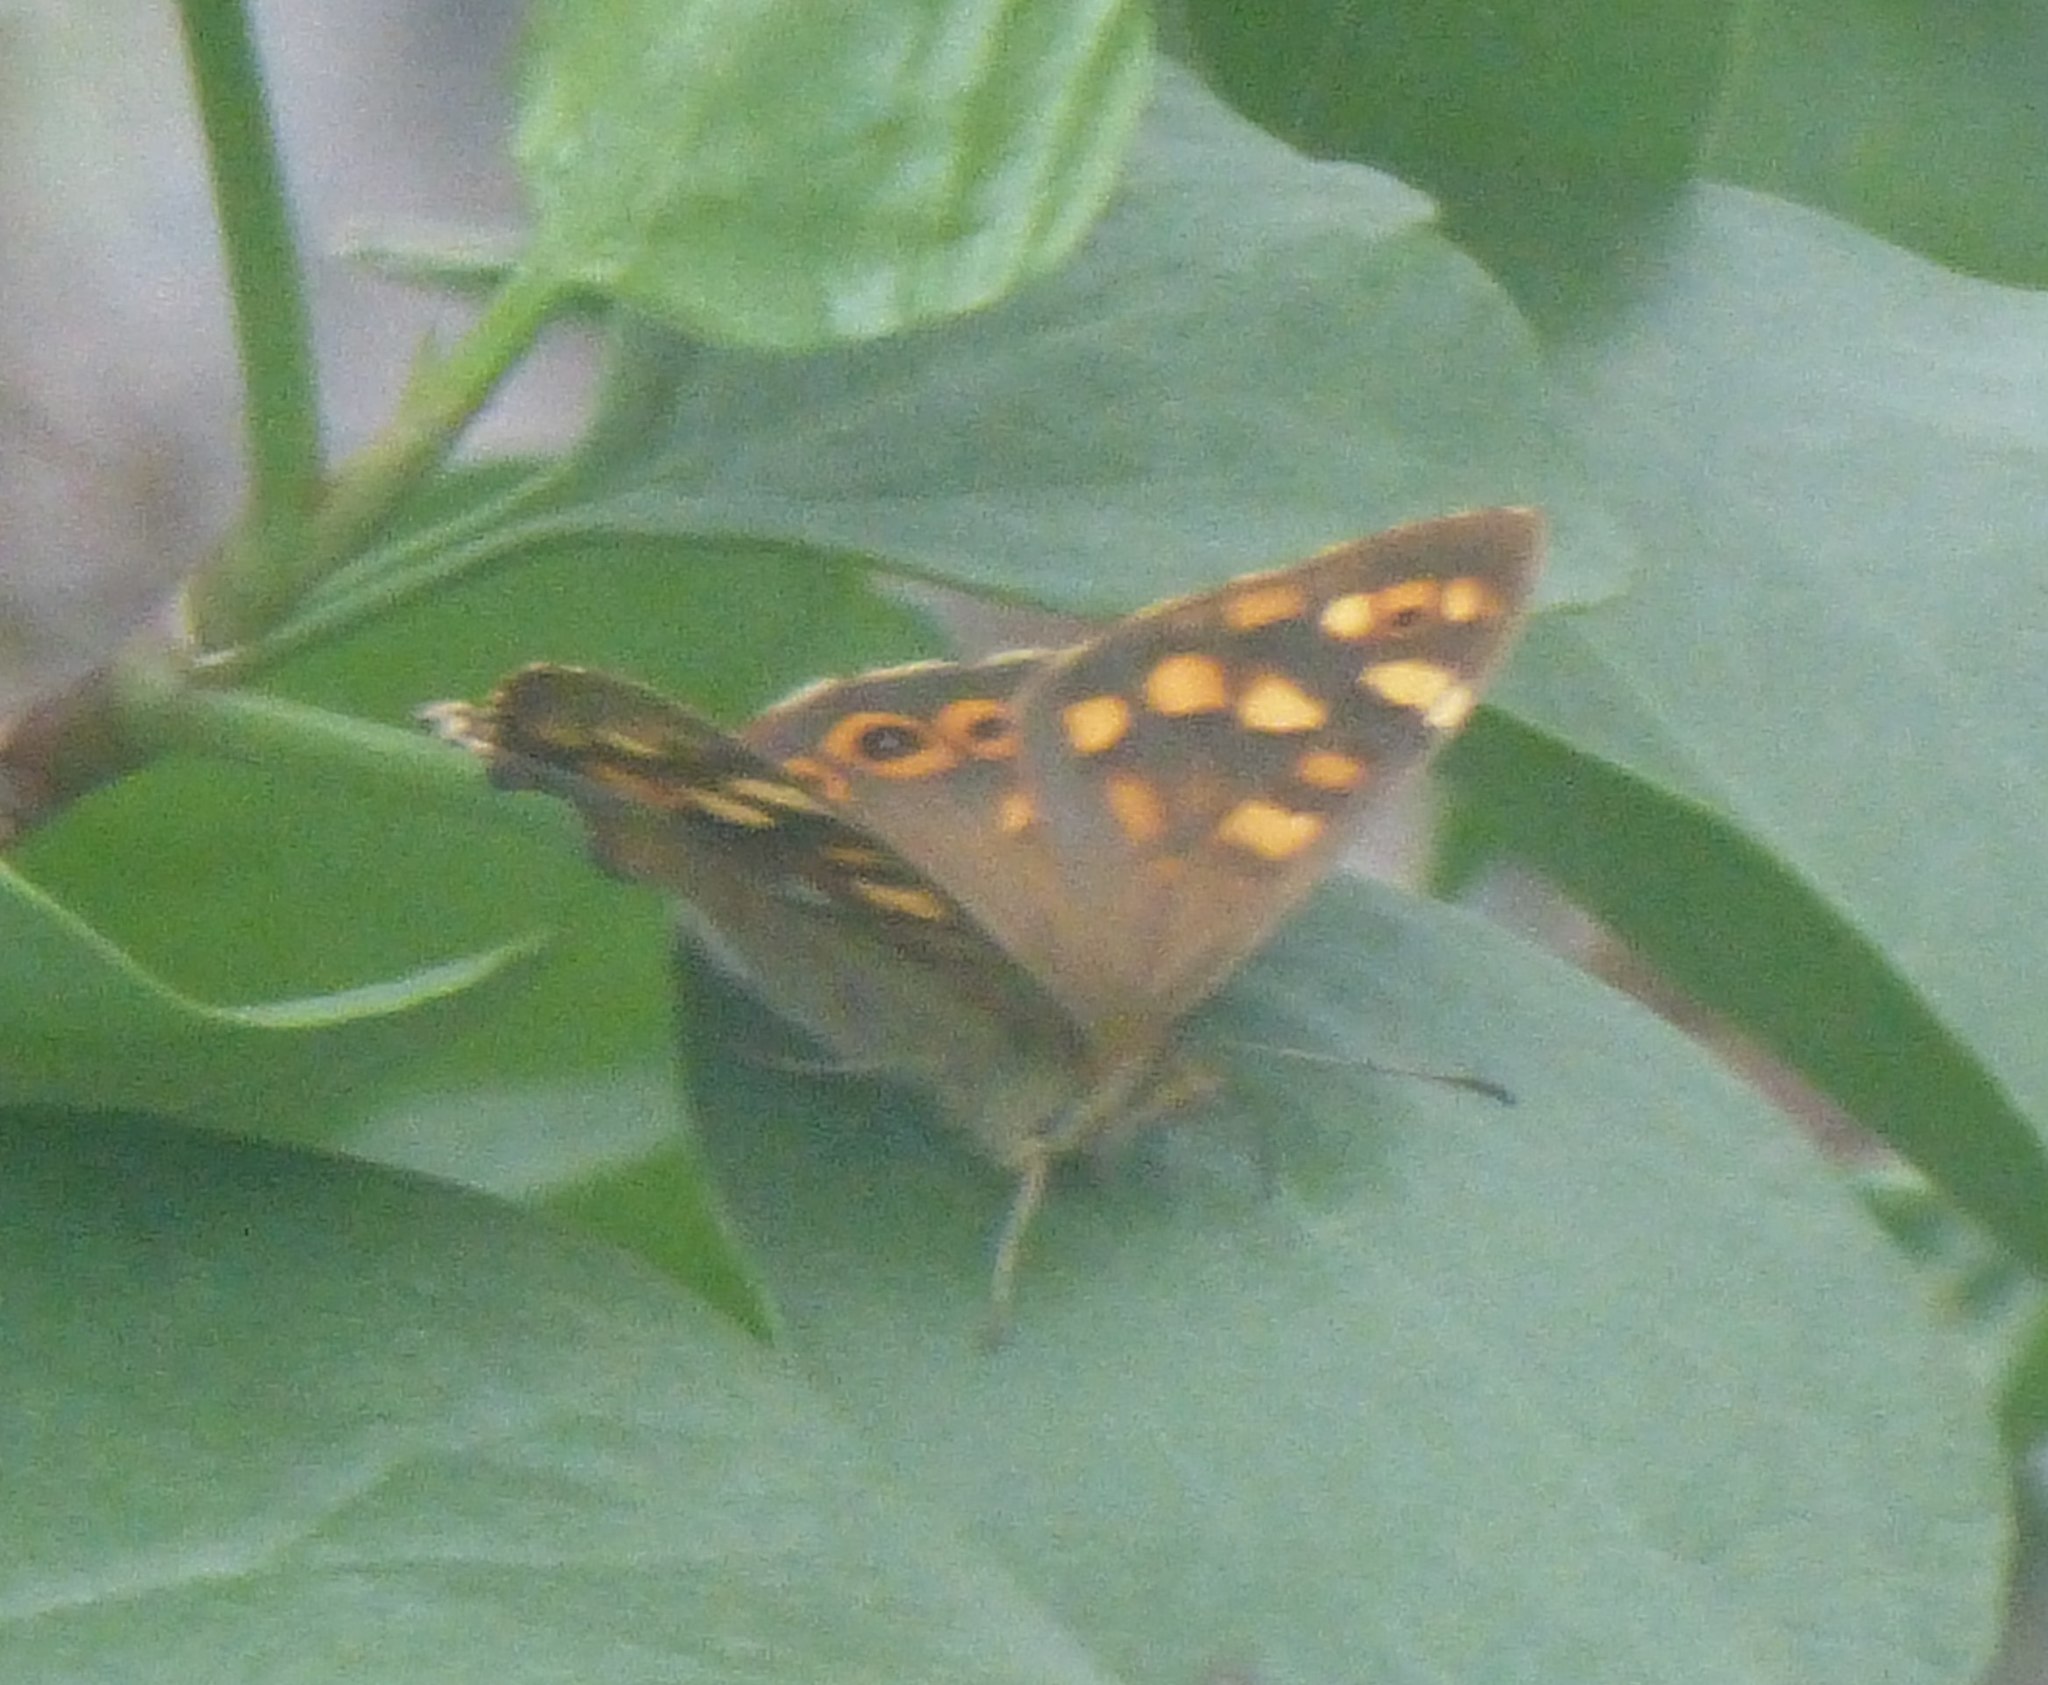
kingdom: Animalia
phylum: Arthropoda
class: Insecta
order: Lepidoptera
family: Nymphalidae
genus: Pararge
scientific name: Pararge aegeria
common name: Speckled wood
